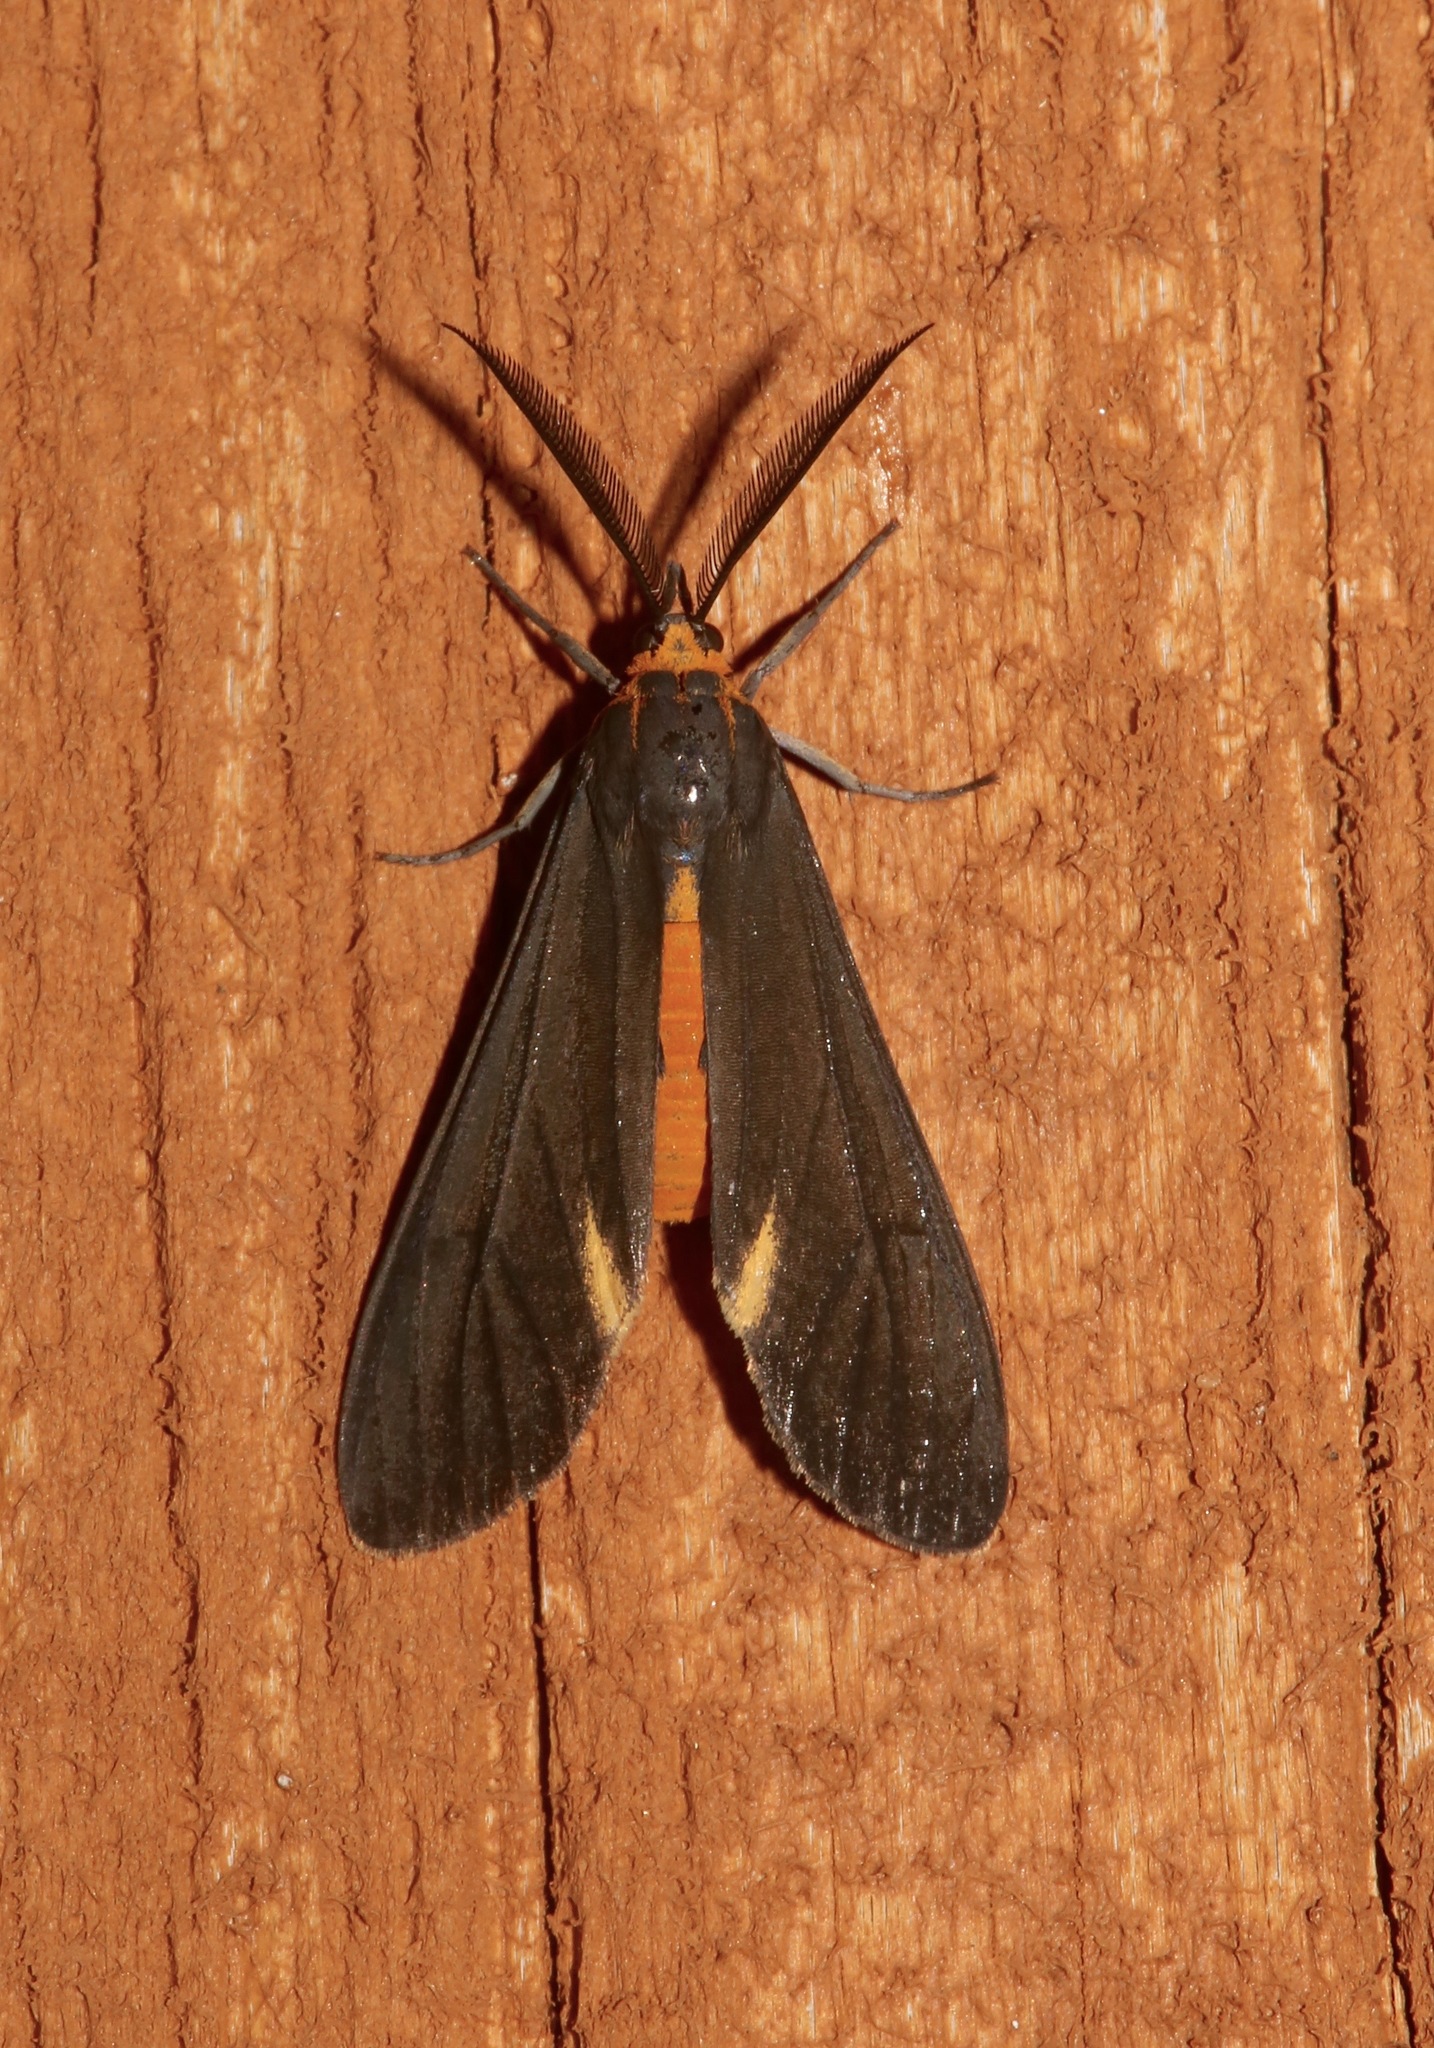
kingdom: Animalia
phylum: Arthropoda
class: Insecta
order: Lepidoptera
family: Erebidae
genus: Dahana
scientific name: Dahana atripennis
